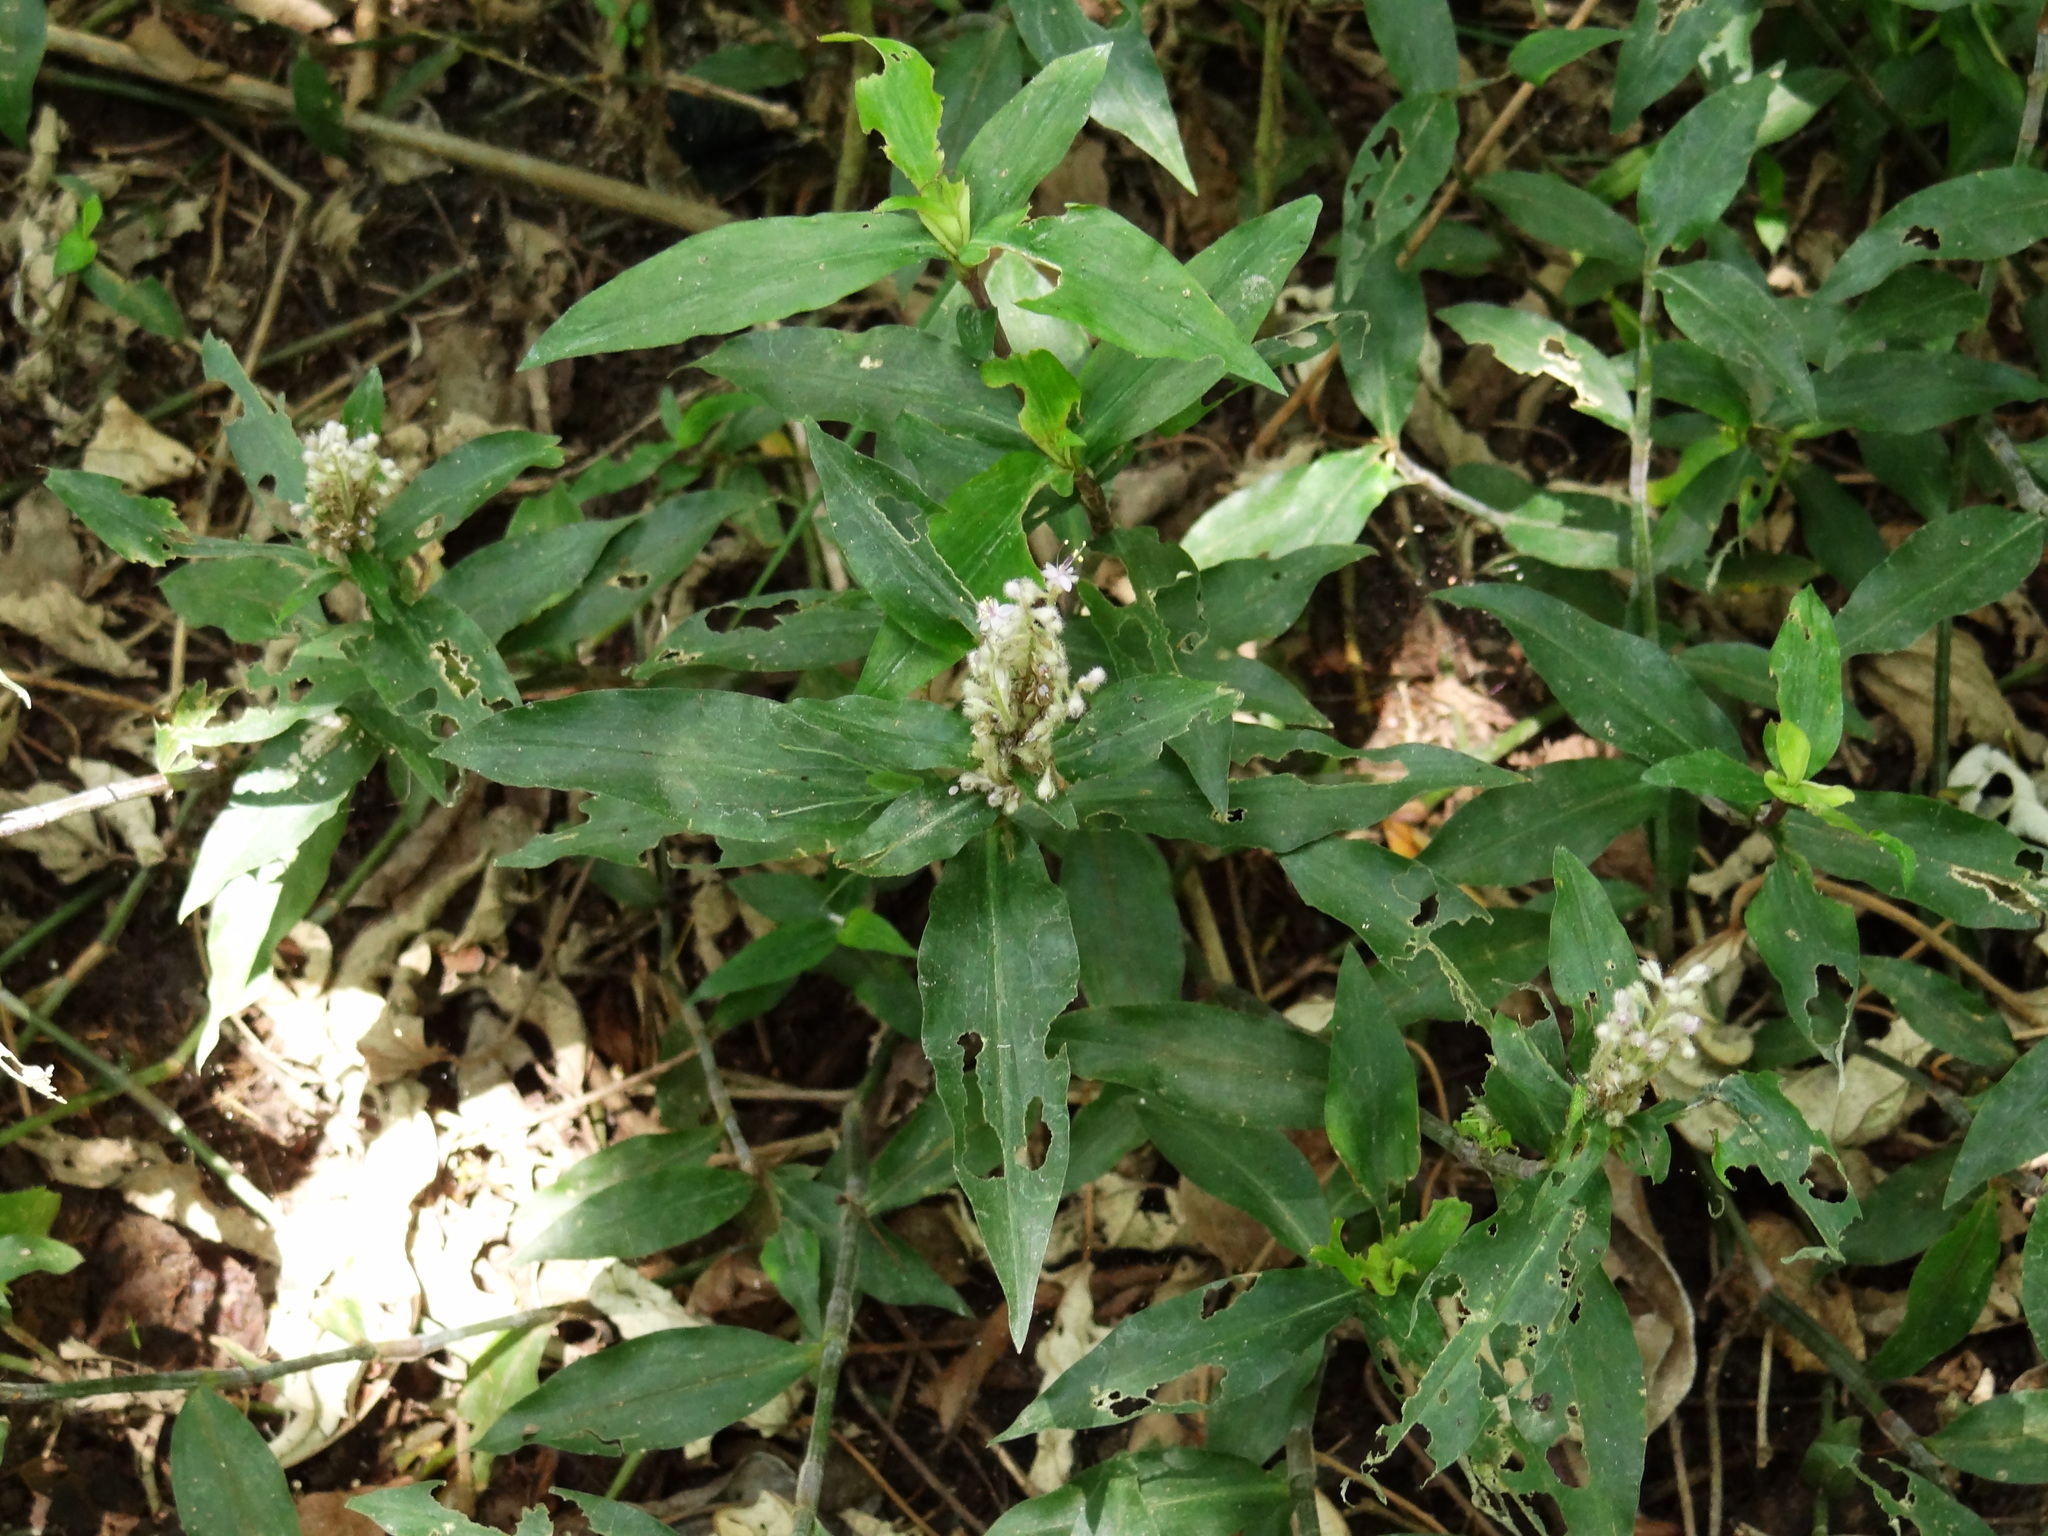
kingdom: Plantae
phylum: Tracheophyta
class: Liliopsida
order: Commelinales
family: Commelinaceae
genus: Floscopa
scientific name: Floscopa scandens
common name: Climbing flower cup
